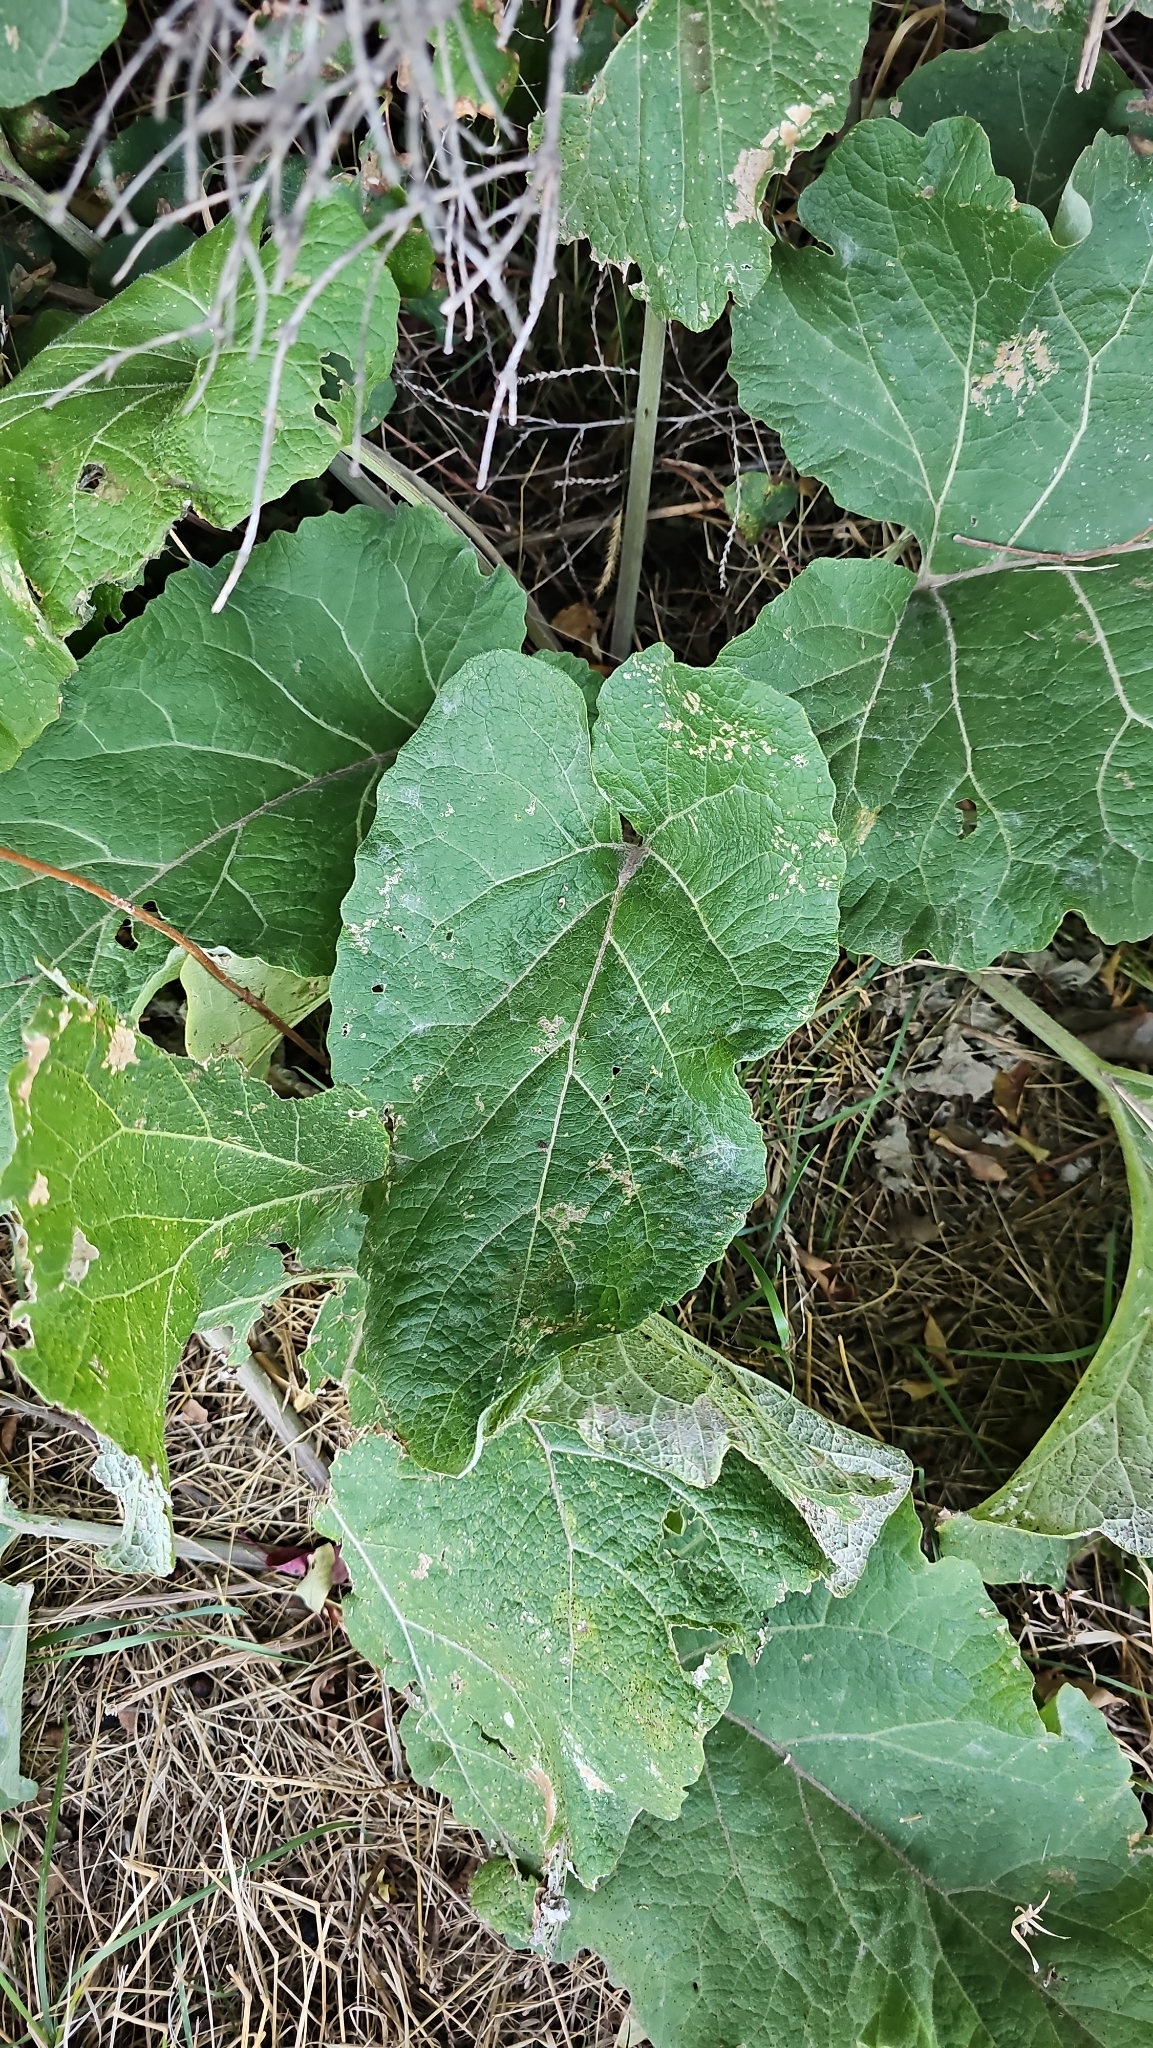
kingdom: Plantae
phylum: Tracheophyta
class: Magnoliopsida
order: Asterales
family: Asteraceae
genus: Arctium
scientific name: Arctium
